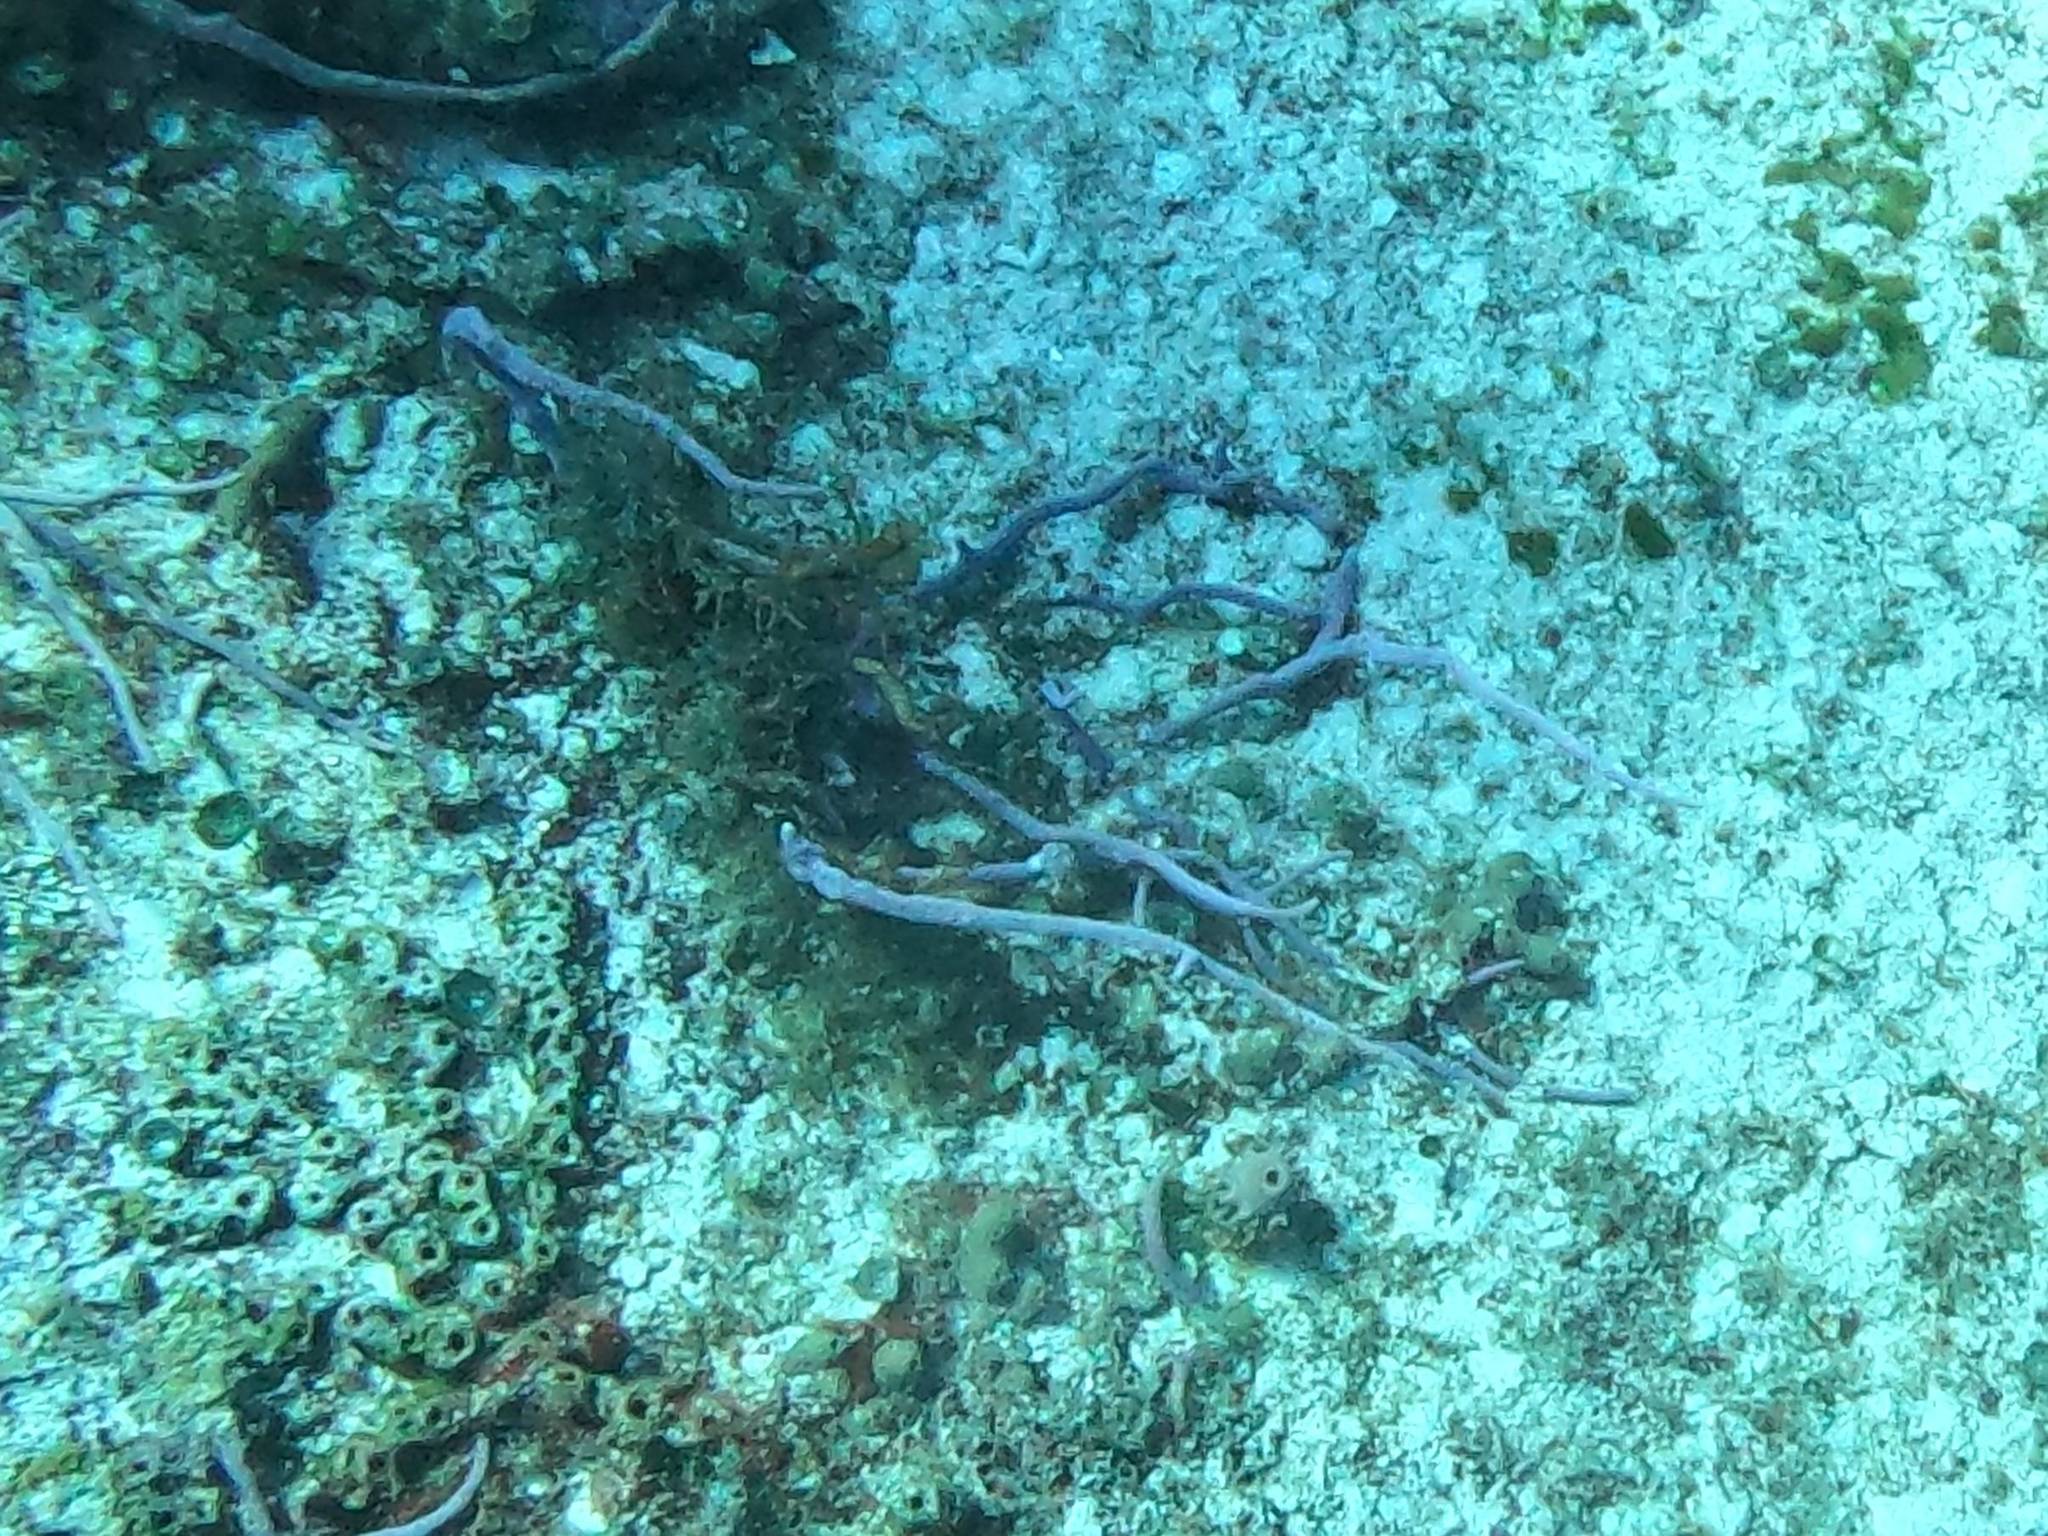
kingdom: Animalia
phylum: Porifera
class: Demospongiae
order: Verongiida
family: Aplysinidae
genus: Aplysina
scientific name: Aplysina cauliformis
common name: Branching candle sponge
